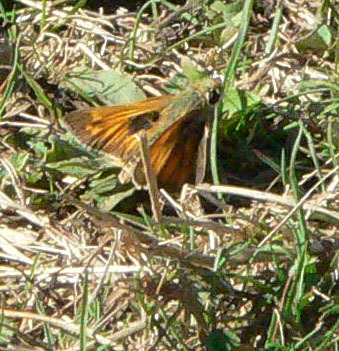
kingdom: Animalia
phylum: Arthropoda
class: Insecta
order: Lepidoptera
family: Hesperiidae
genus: Atalopedes
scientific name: Atalopedes
